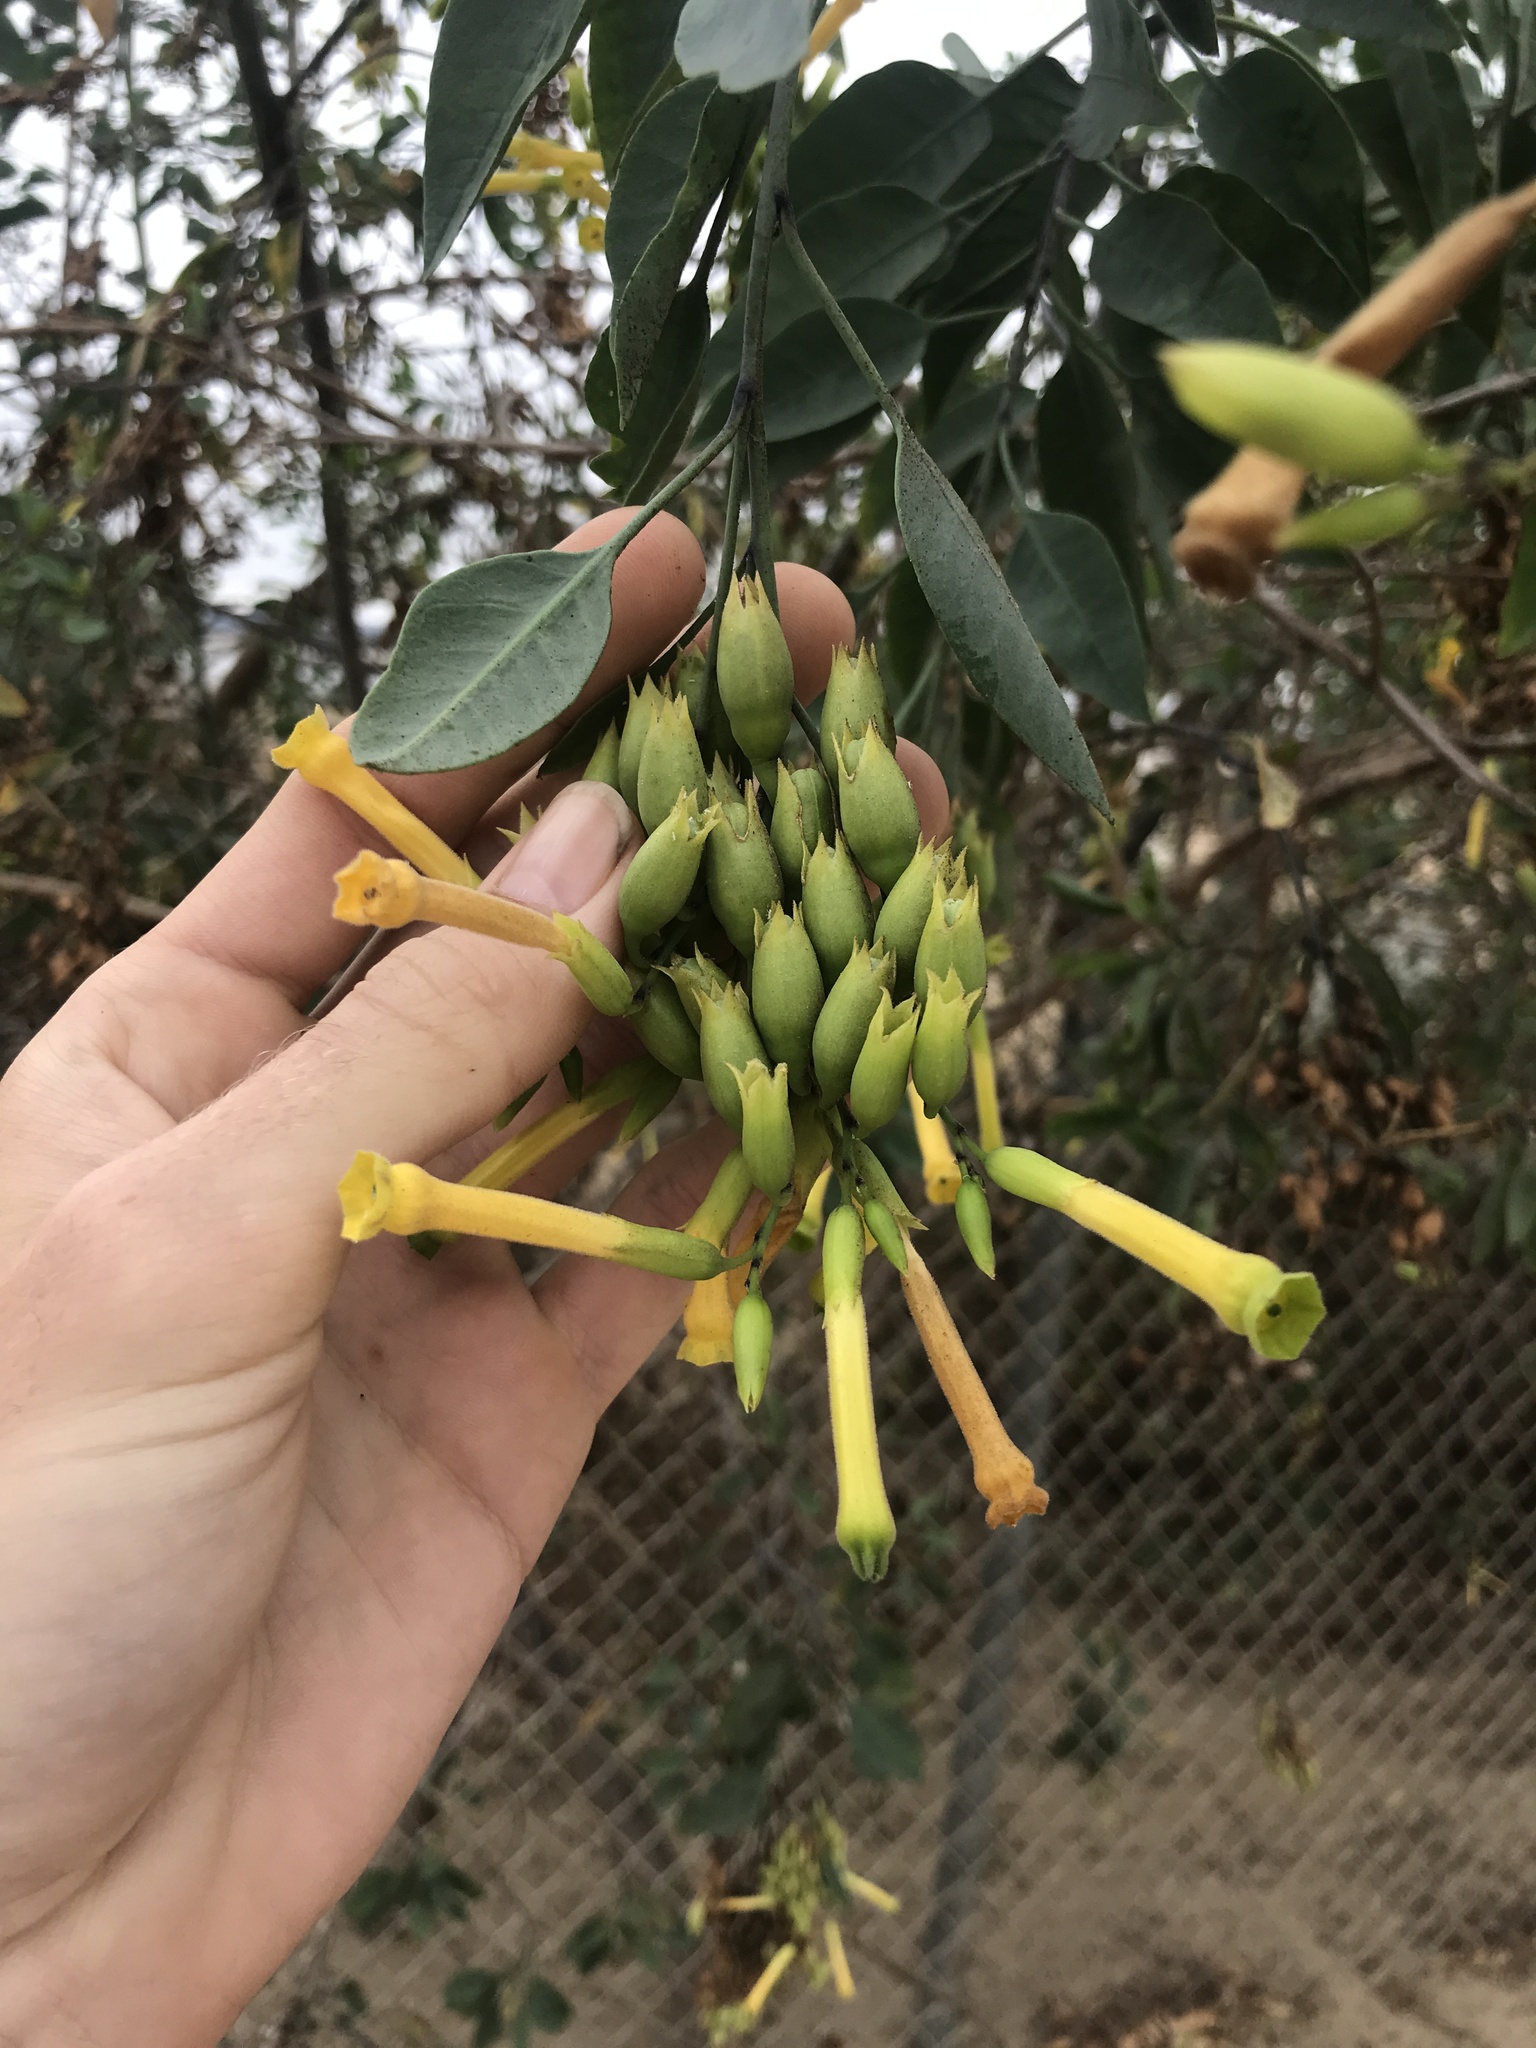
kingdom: Plantae
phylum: Tracheophyta
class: Magnoliopsida
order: Solanales
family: Solanaceae
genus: Nicotiana
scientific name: Nicotiana glauca
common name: Tree tobacco
